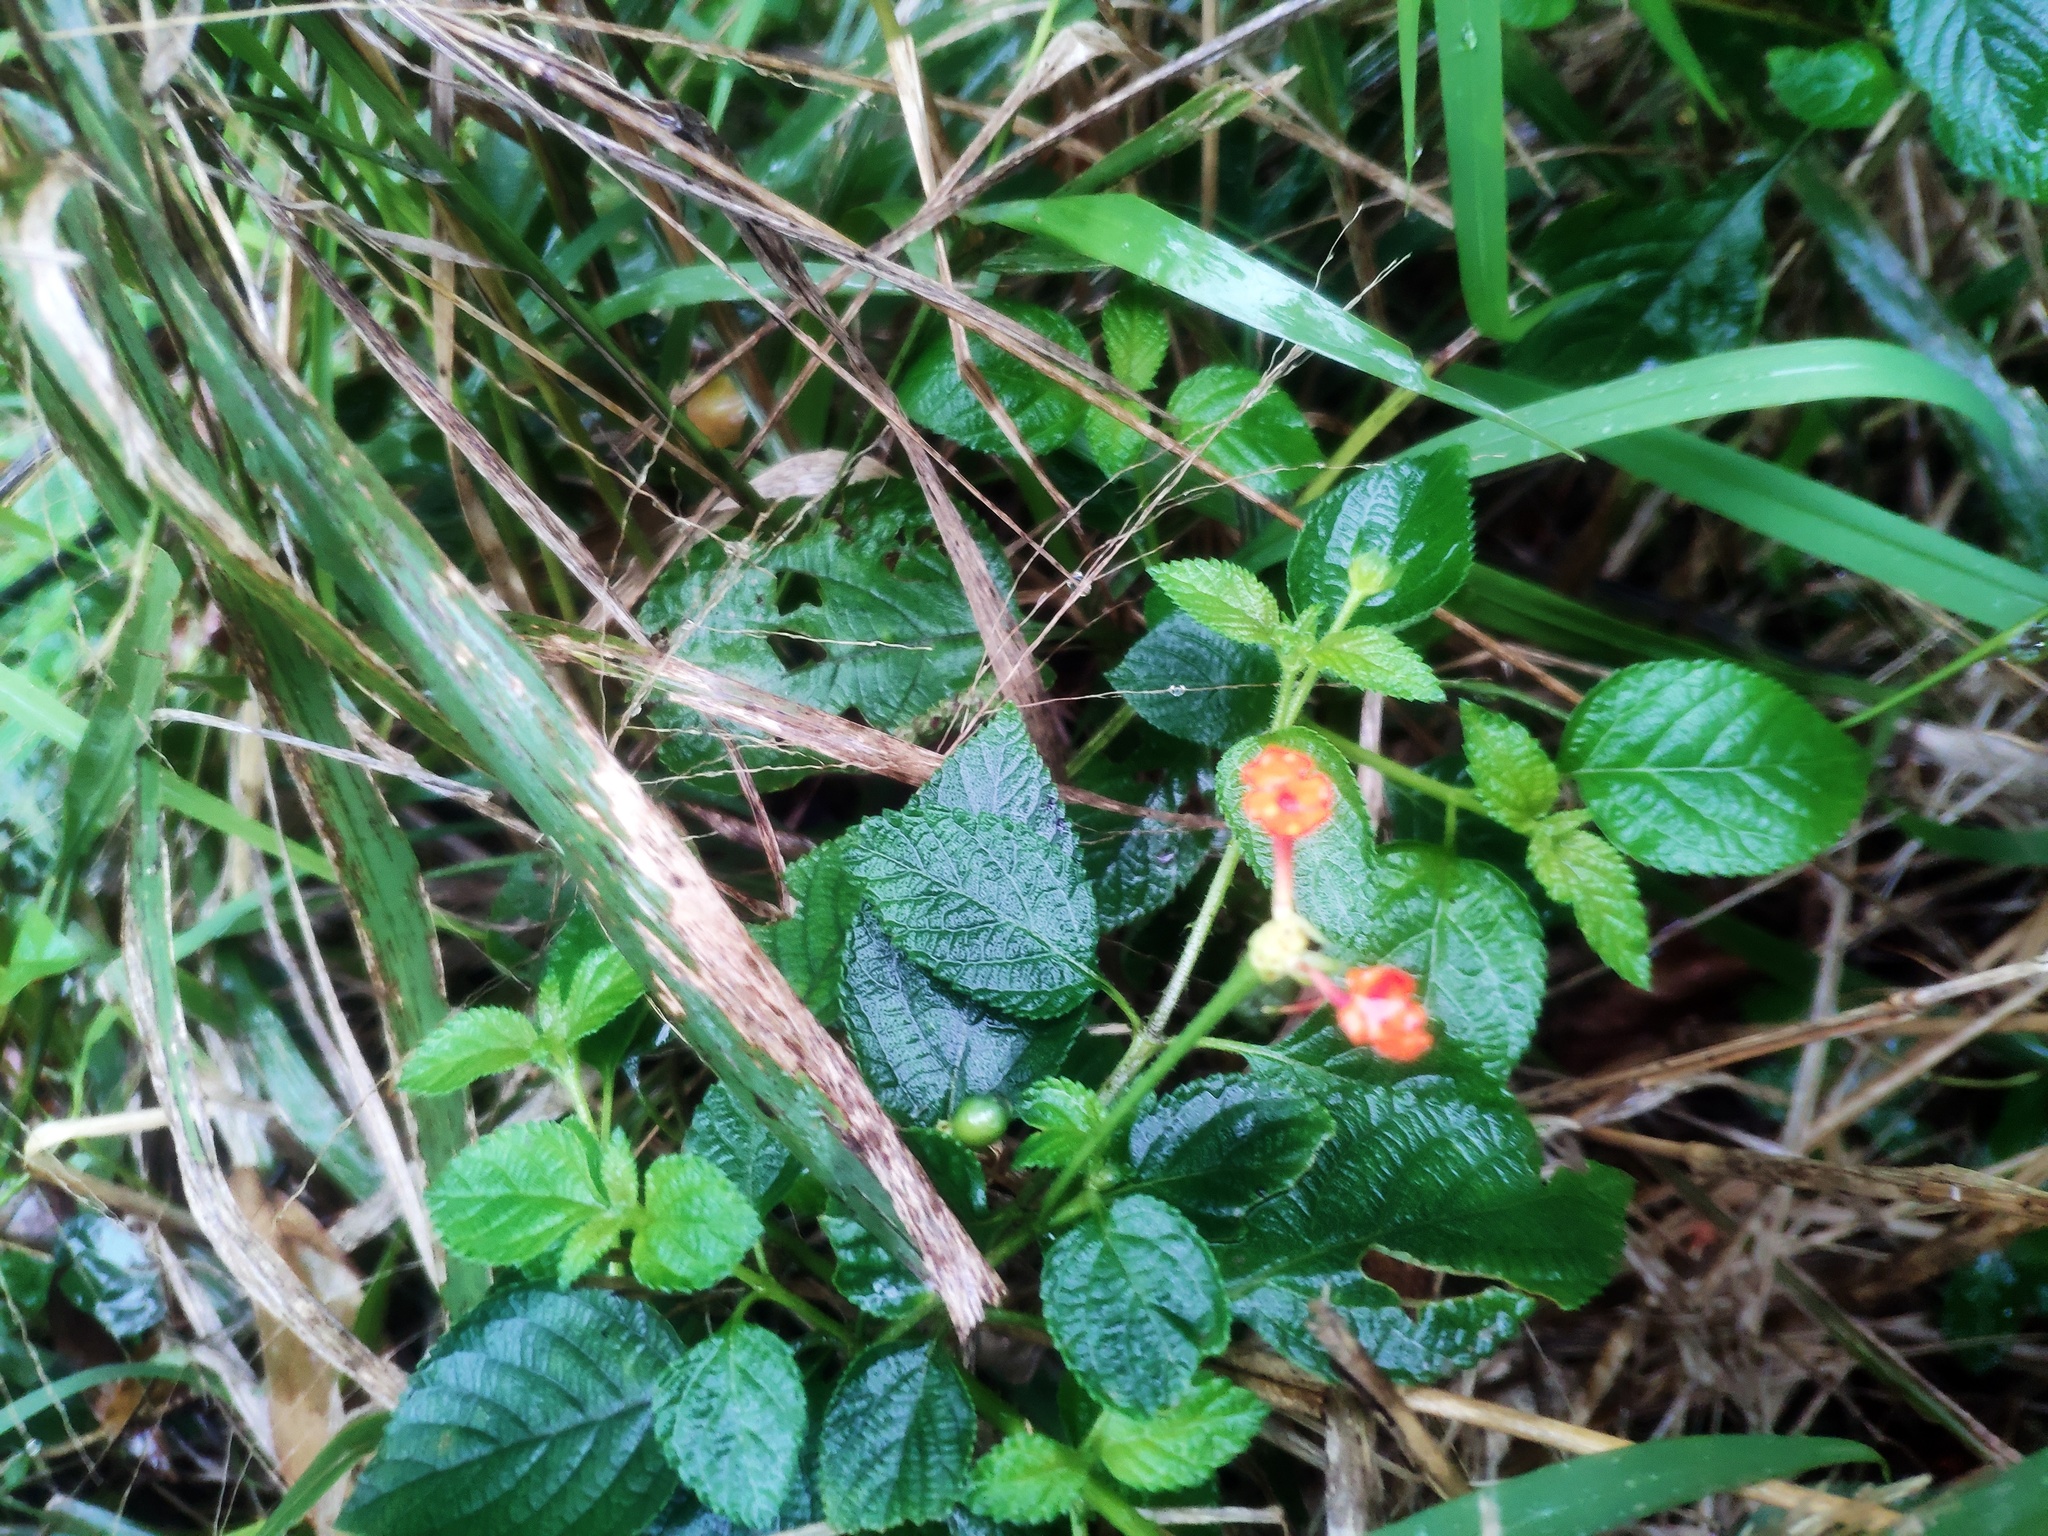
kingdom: Plantae
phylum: Tracheophyta
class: Magnoliopsida
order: Lamiales
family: Verbenaceae
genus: Lantana
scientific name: Lantana camara
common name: Lantana
